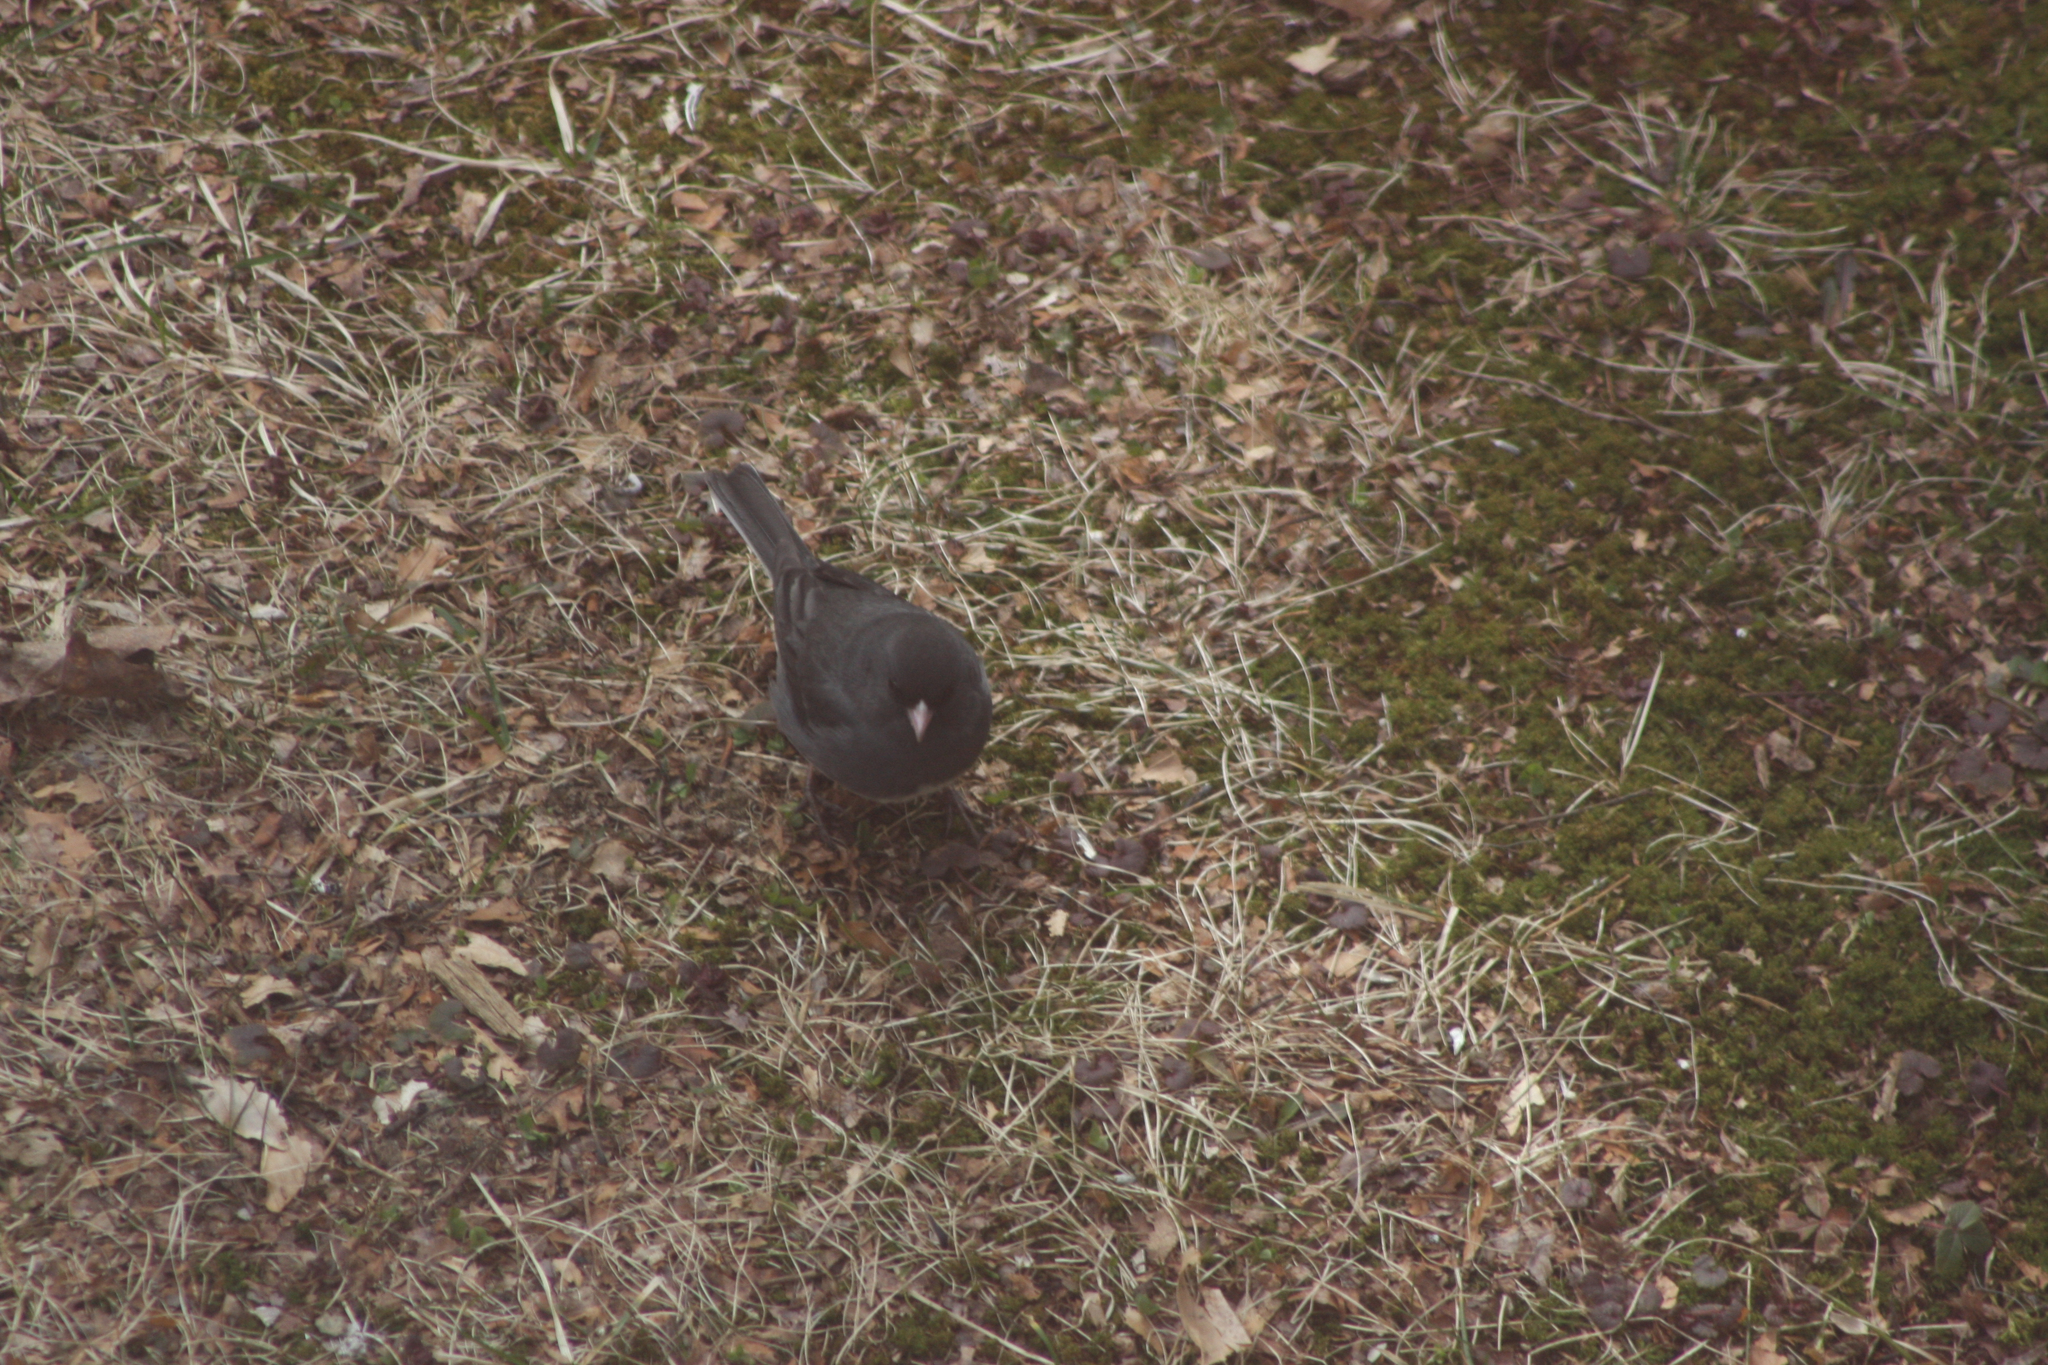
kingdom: Animalia
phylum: Chordata
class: Aves
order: Passeriformes
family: Passerellidae
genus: Junco
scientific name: Junco hyemalis
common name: Dark-eyed junco
